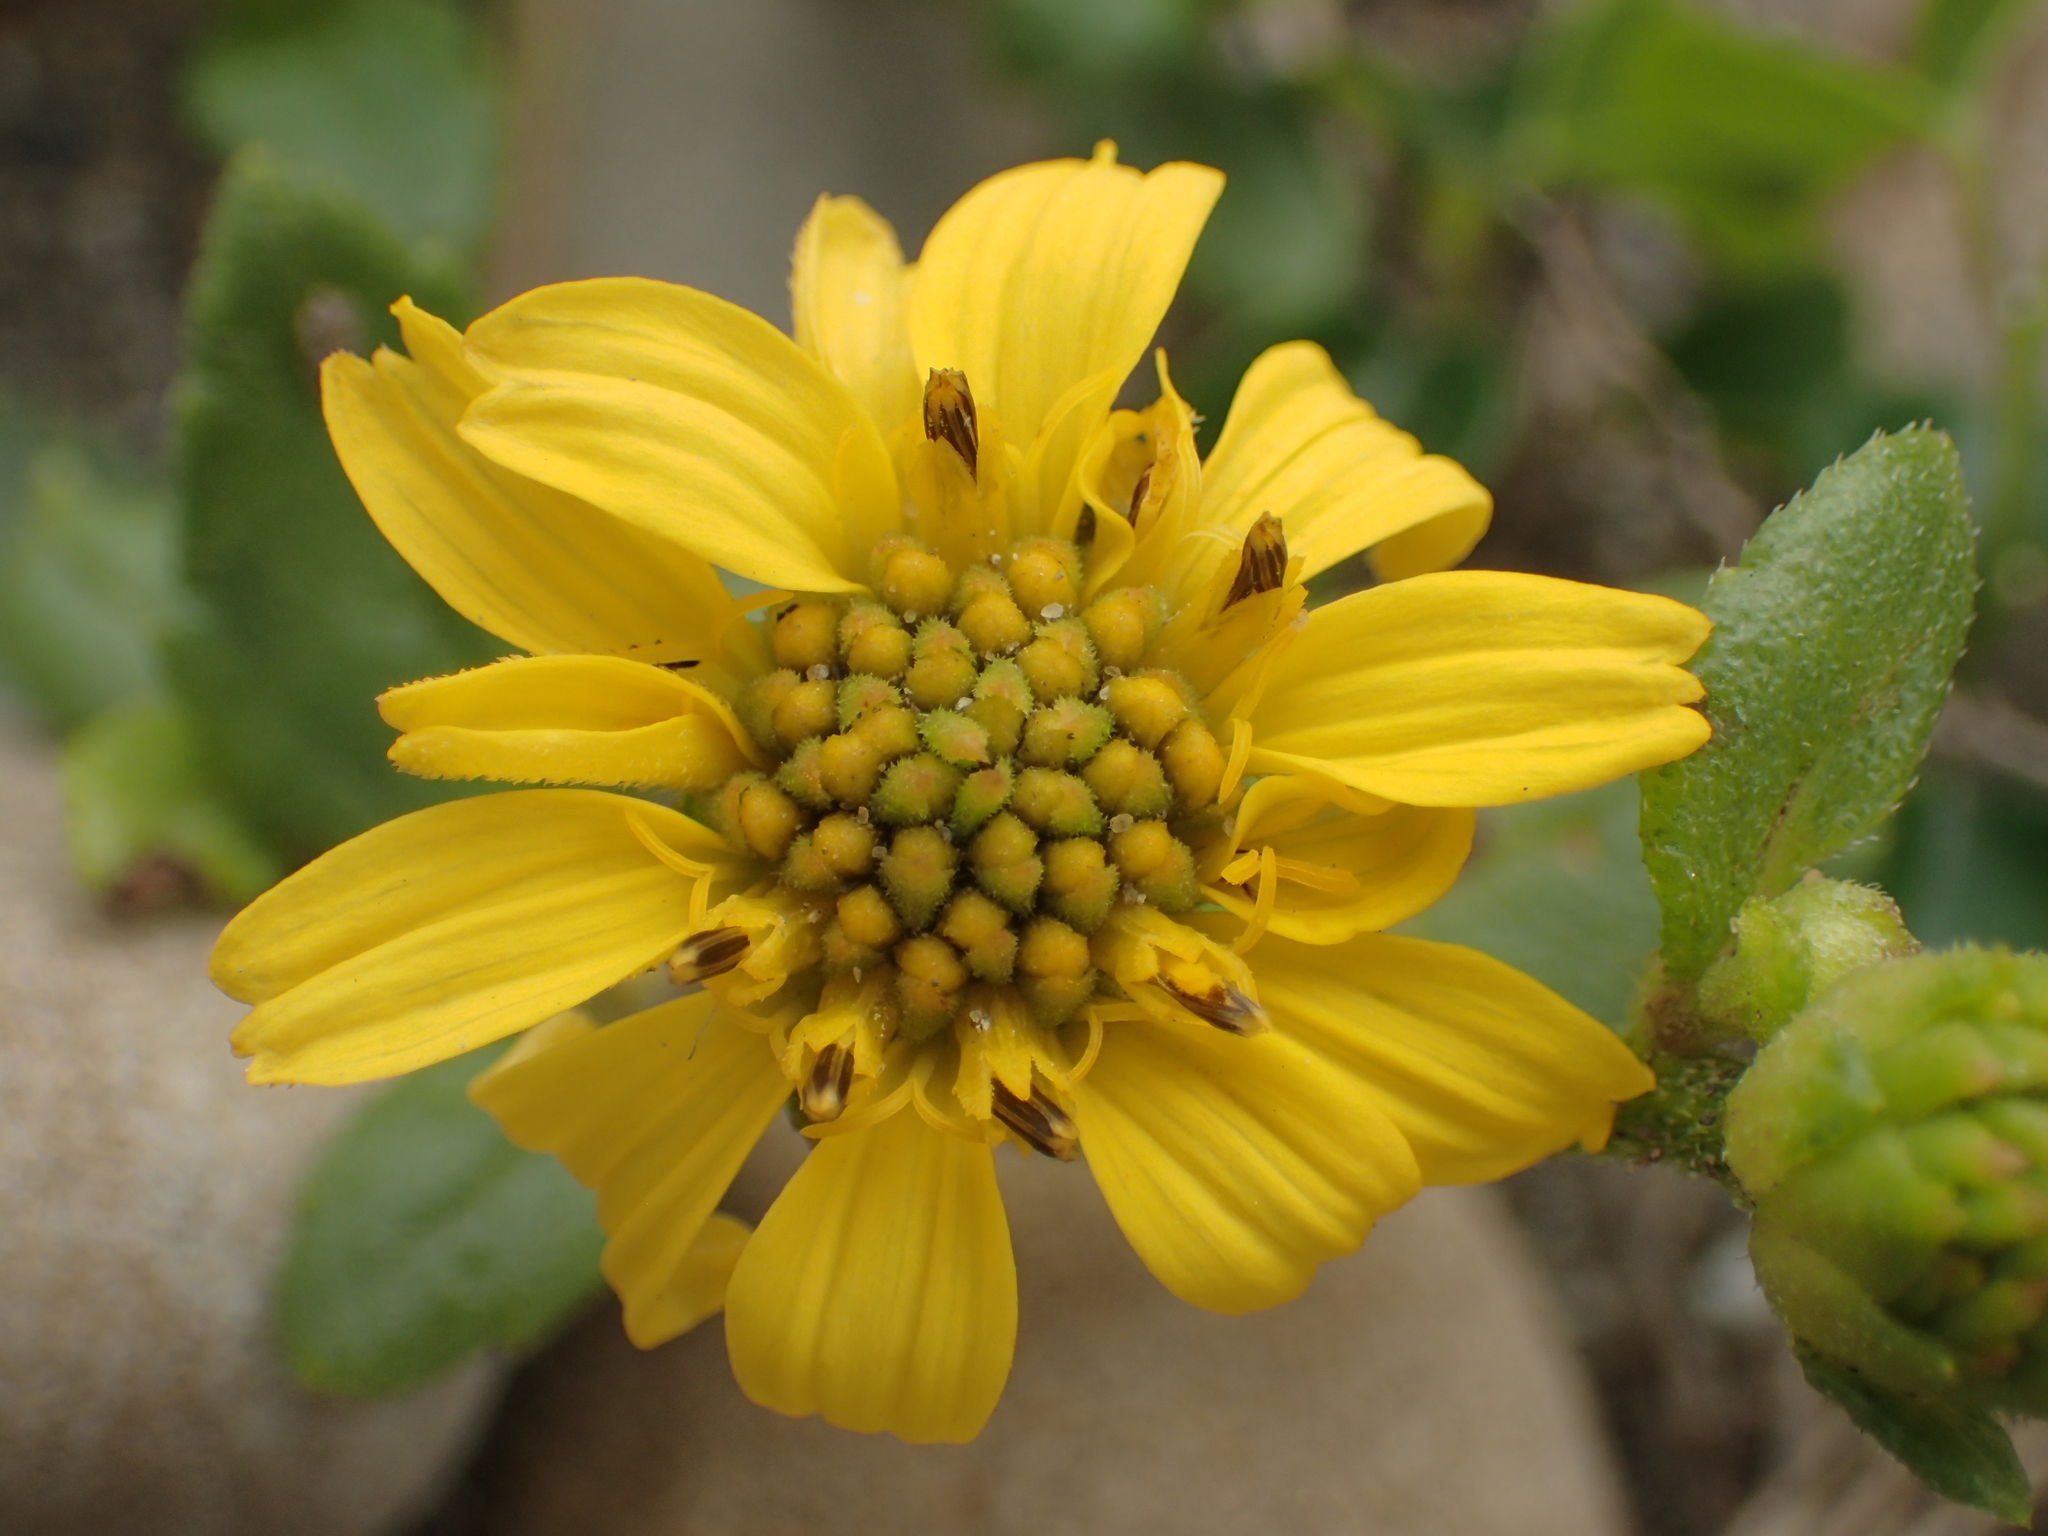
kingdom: Plantae
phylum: Tracheophyta
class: Magnoliopsida
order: Asterales
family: Asteraceae
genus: Melanthera
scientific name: Melanthera prostrata
